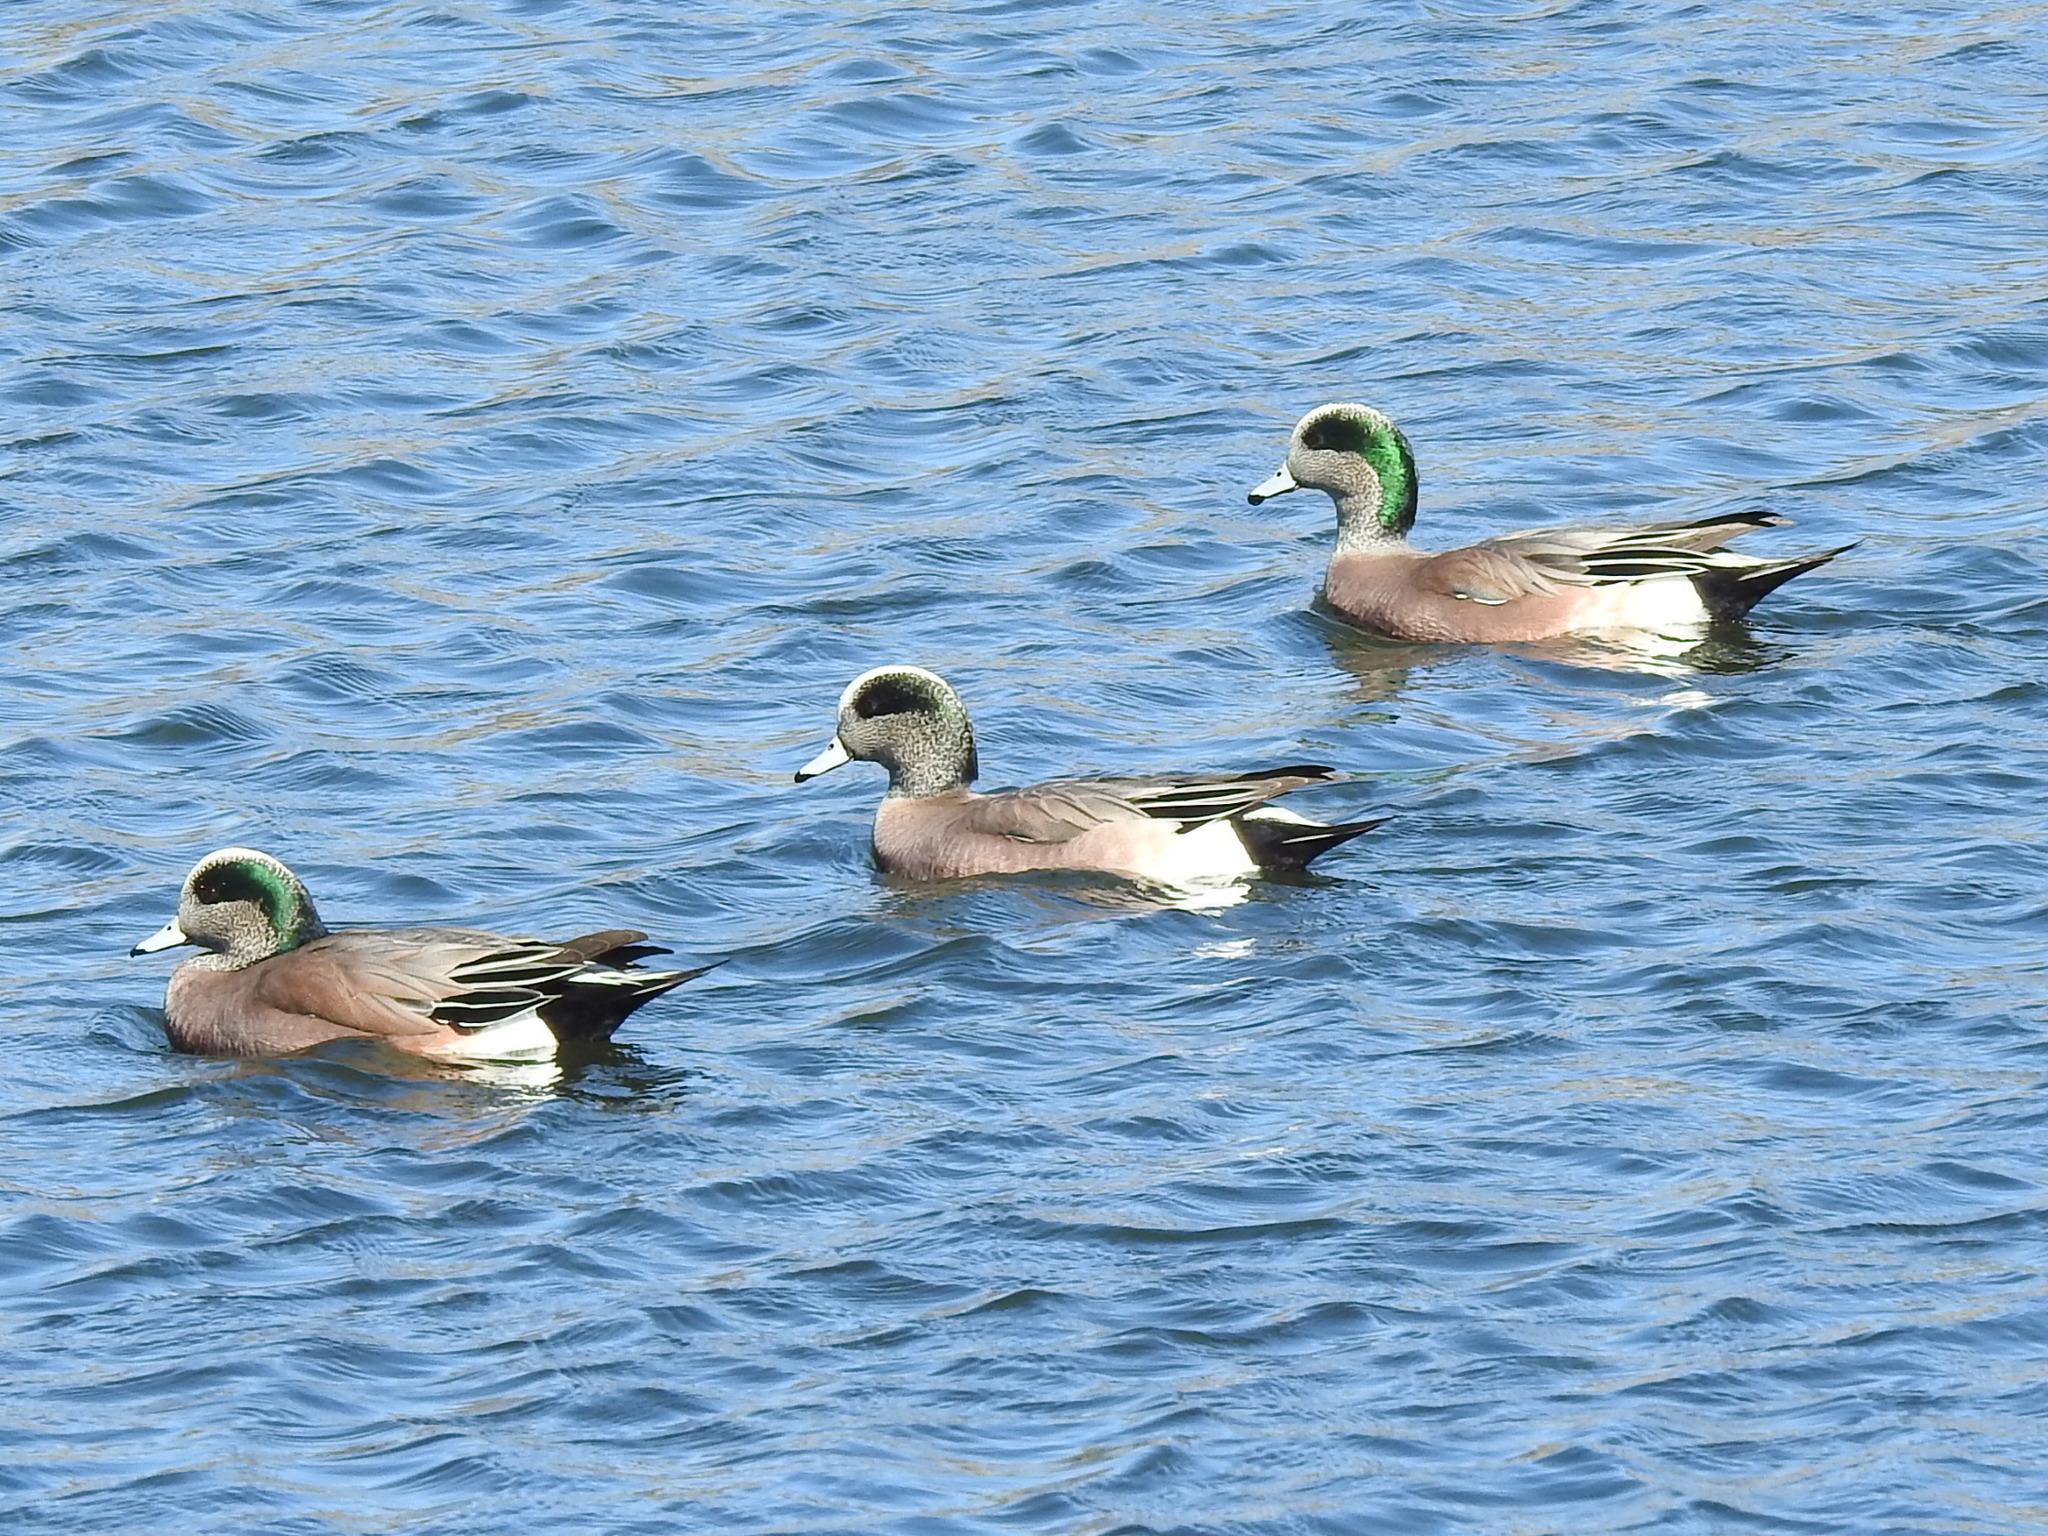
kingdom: Animalia
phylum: Chordata
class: Aves
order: Anseriformes
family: Anatidae
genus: Mareca
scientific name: Mareca americana
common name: American wigeon
